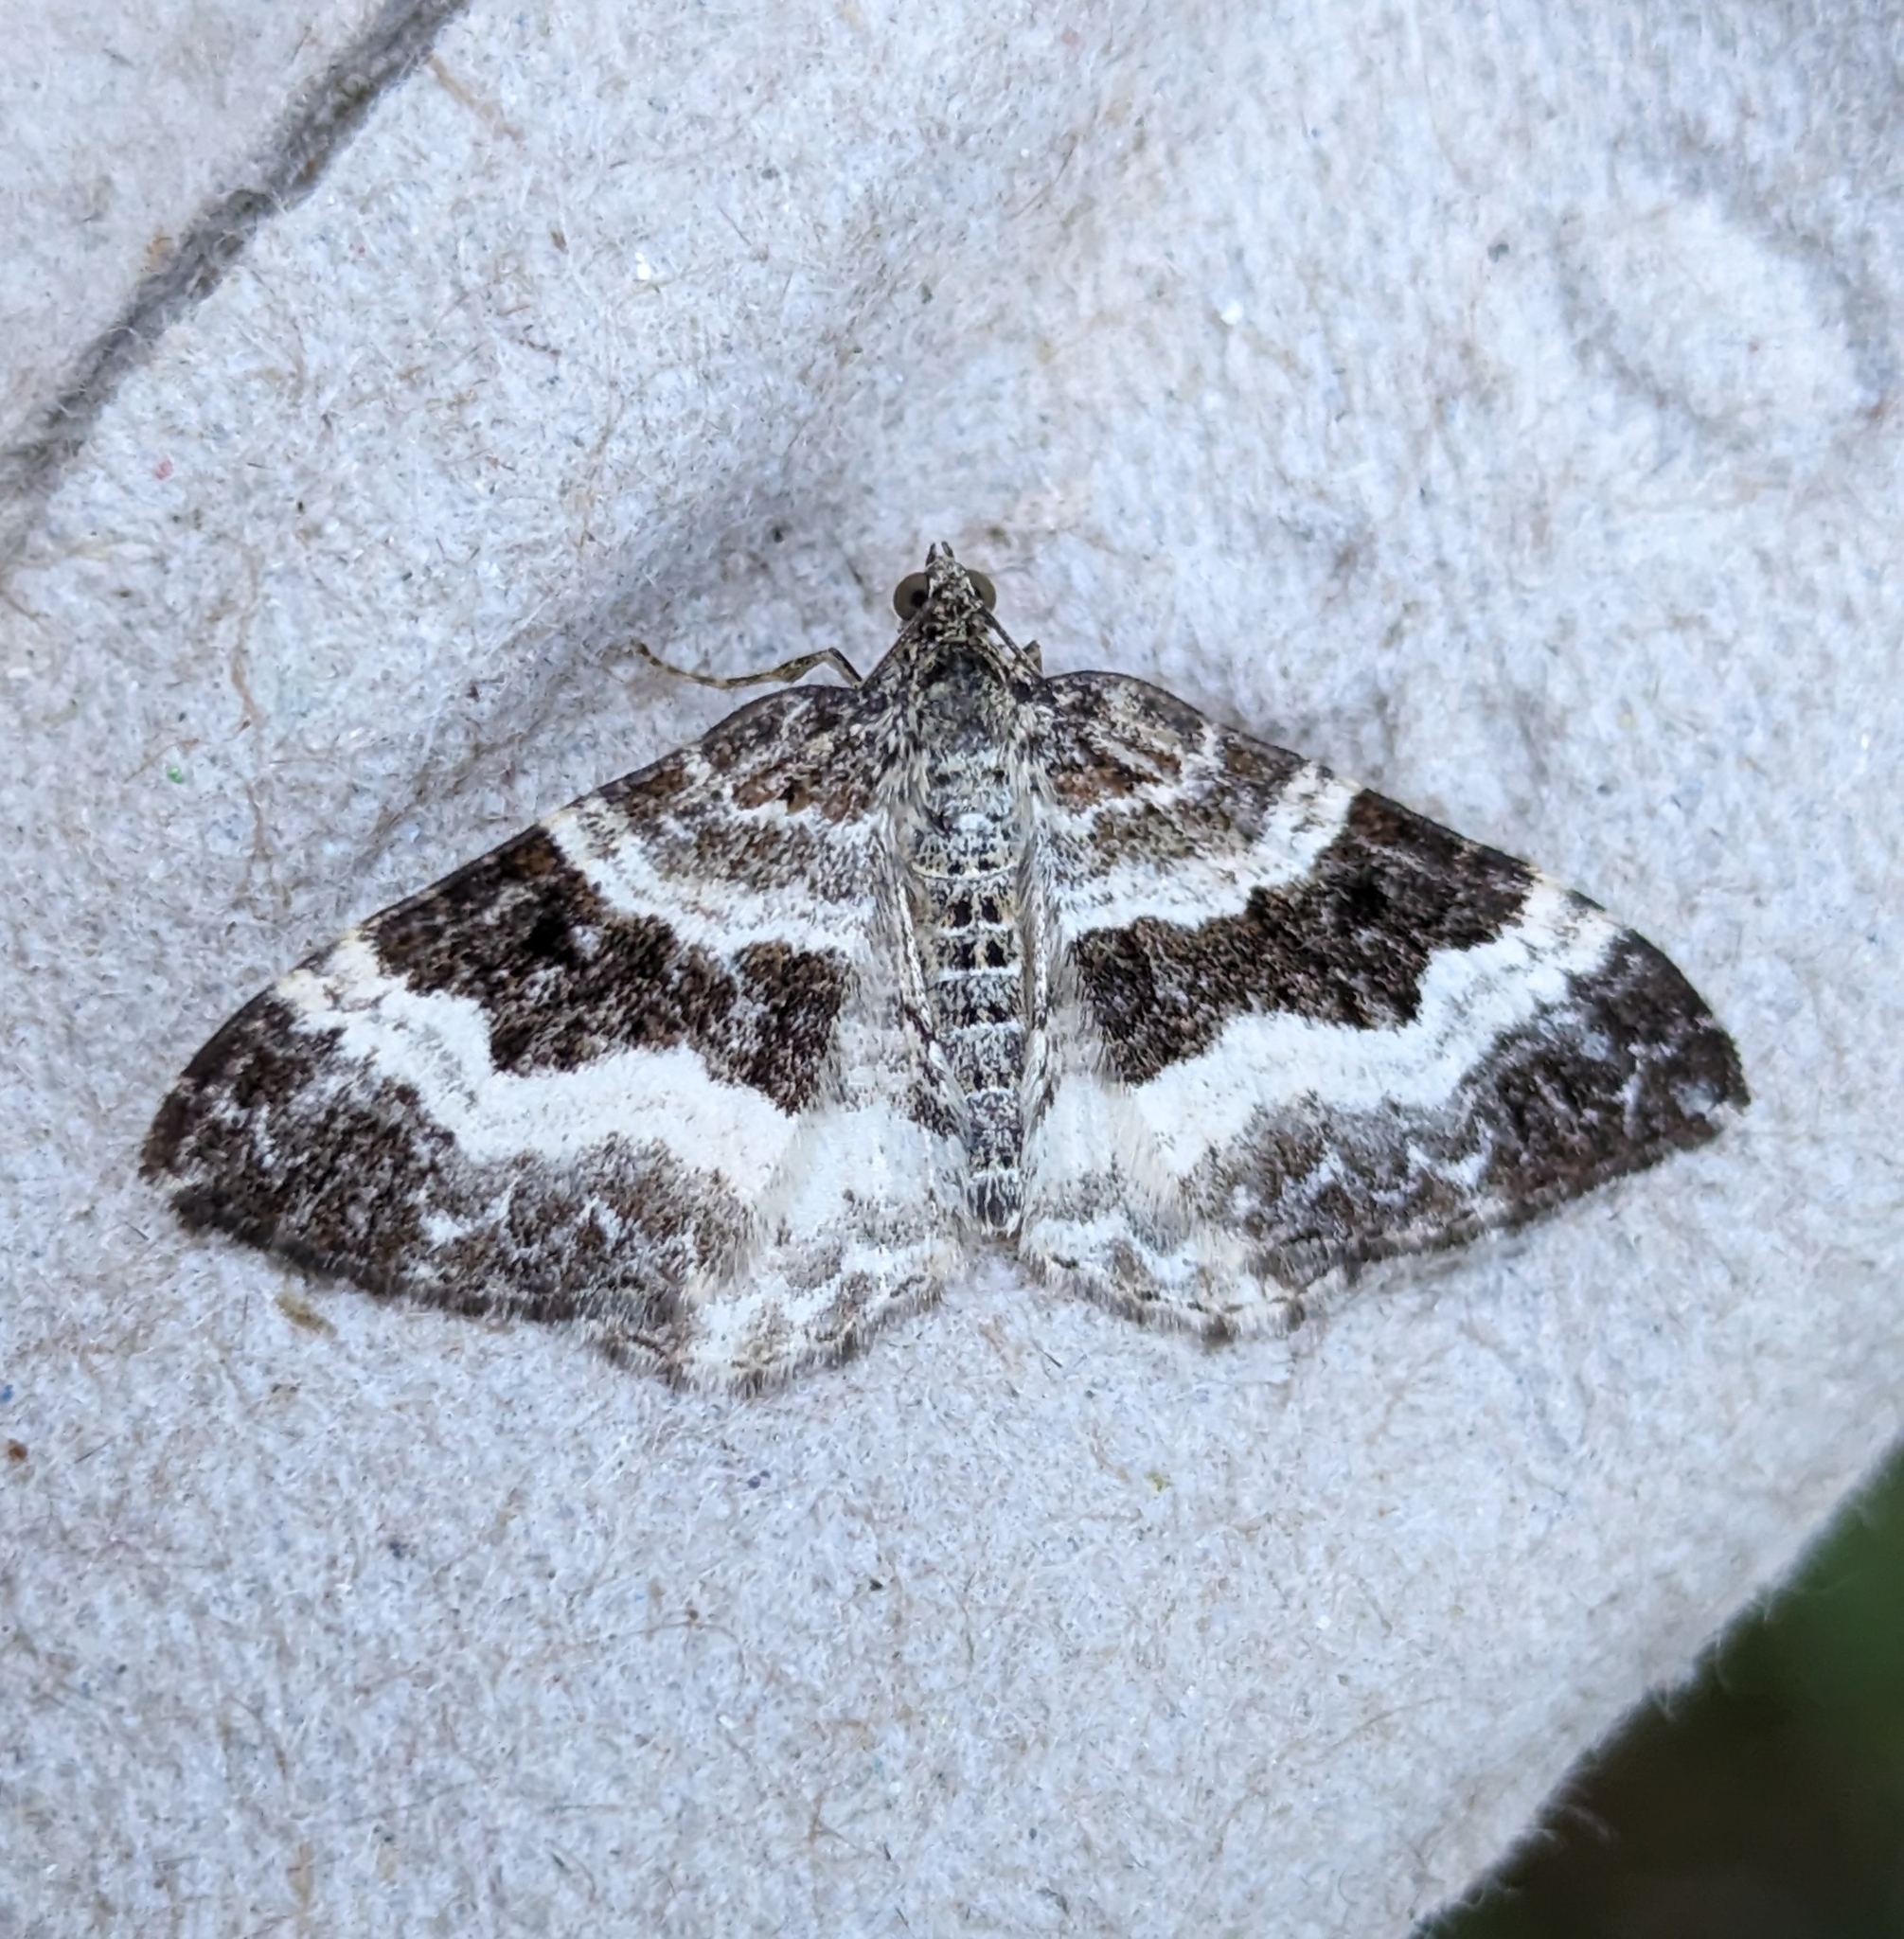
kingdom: Animalia
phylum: Arthropoda
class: Insecta
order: Lepidoptera
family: Geometridae
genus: Epirrhoe
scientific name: Epirrhoe alternata
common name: Common carpet
